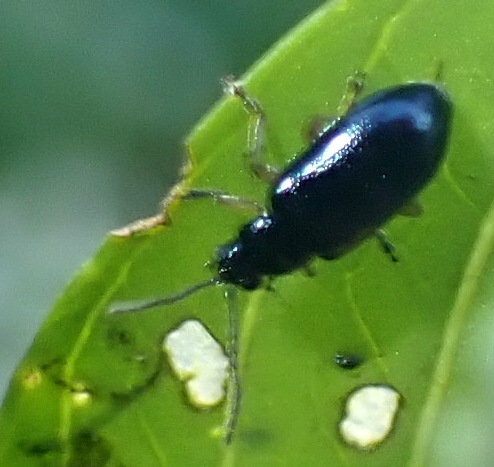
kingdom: Animalia
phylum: Arthropoda
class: Insecta
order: Coleoptera
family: Chrysomelidae
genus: Lysathia
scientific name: Lysathia ludoviciana
